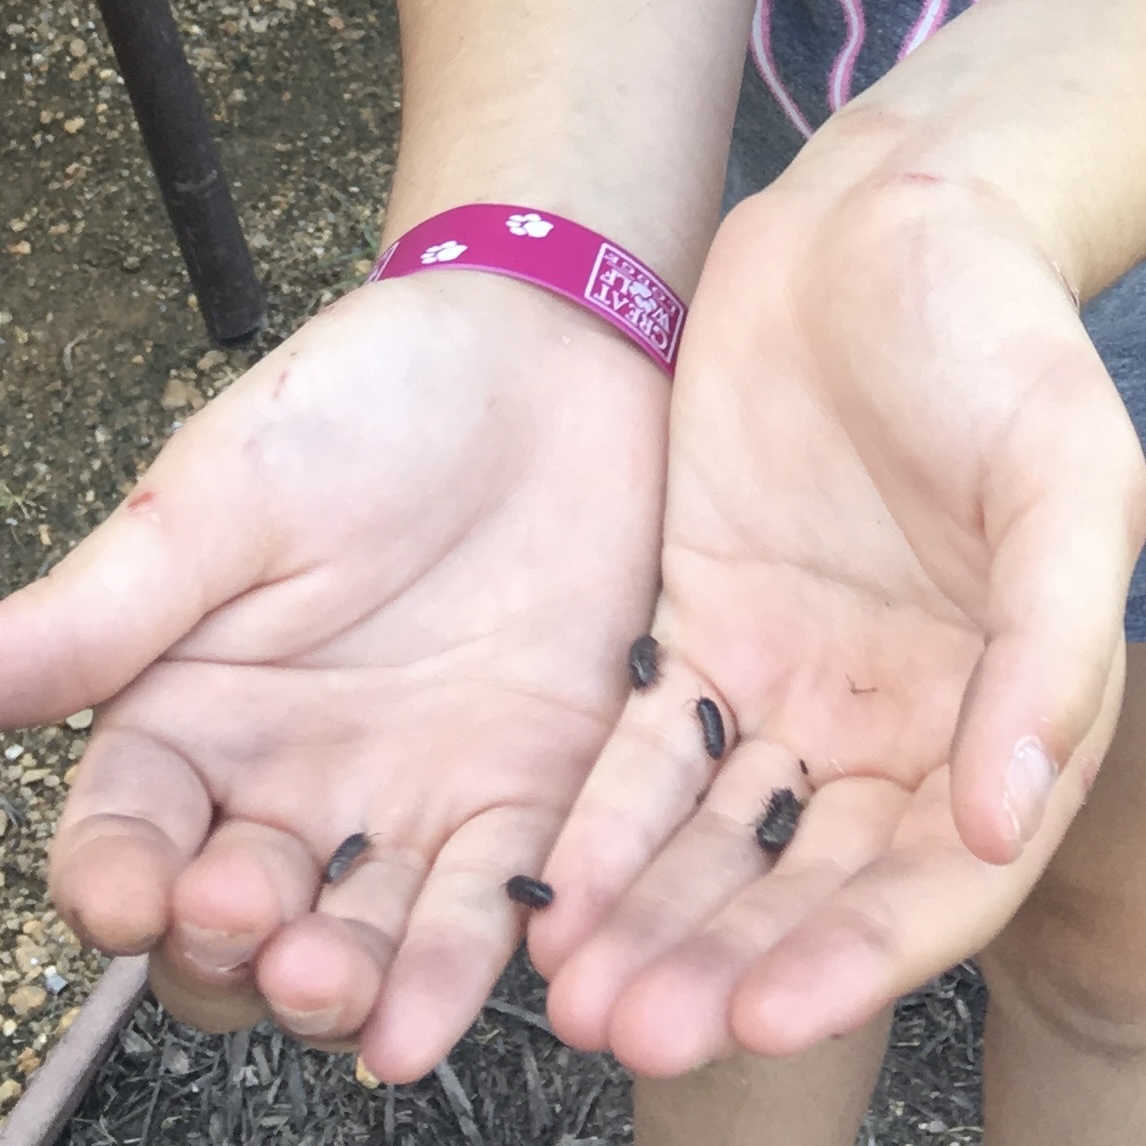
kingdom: Animalia
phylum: Arthropoda
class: Malacostraca
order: Isopoda
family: Armadillidiidae
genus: Armadillidium
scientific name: Armadillidium vulgare
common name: Common pill woodlouse
